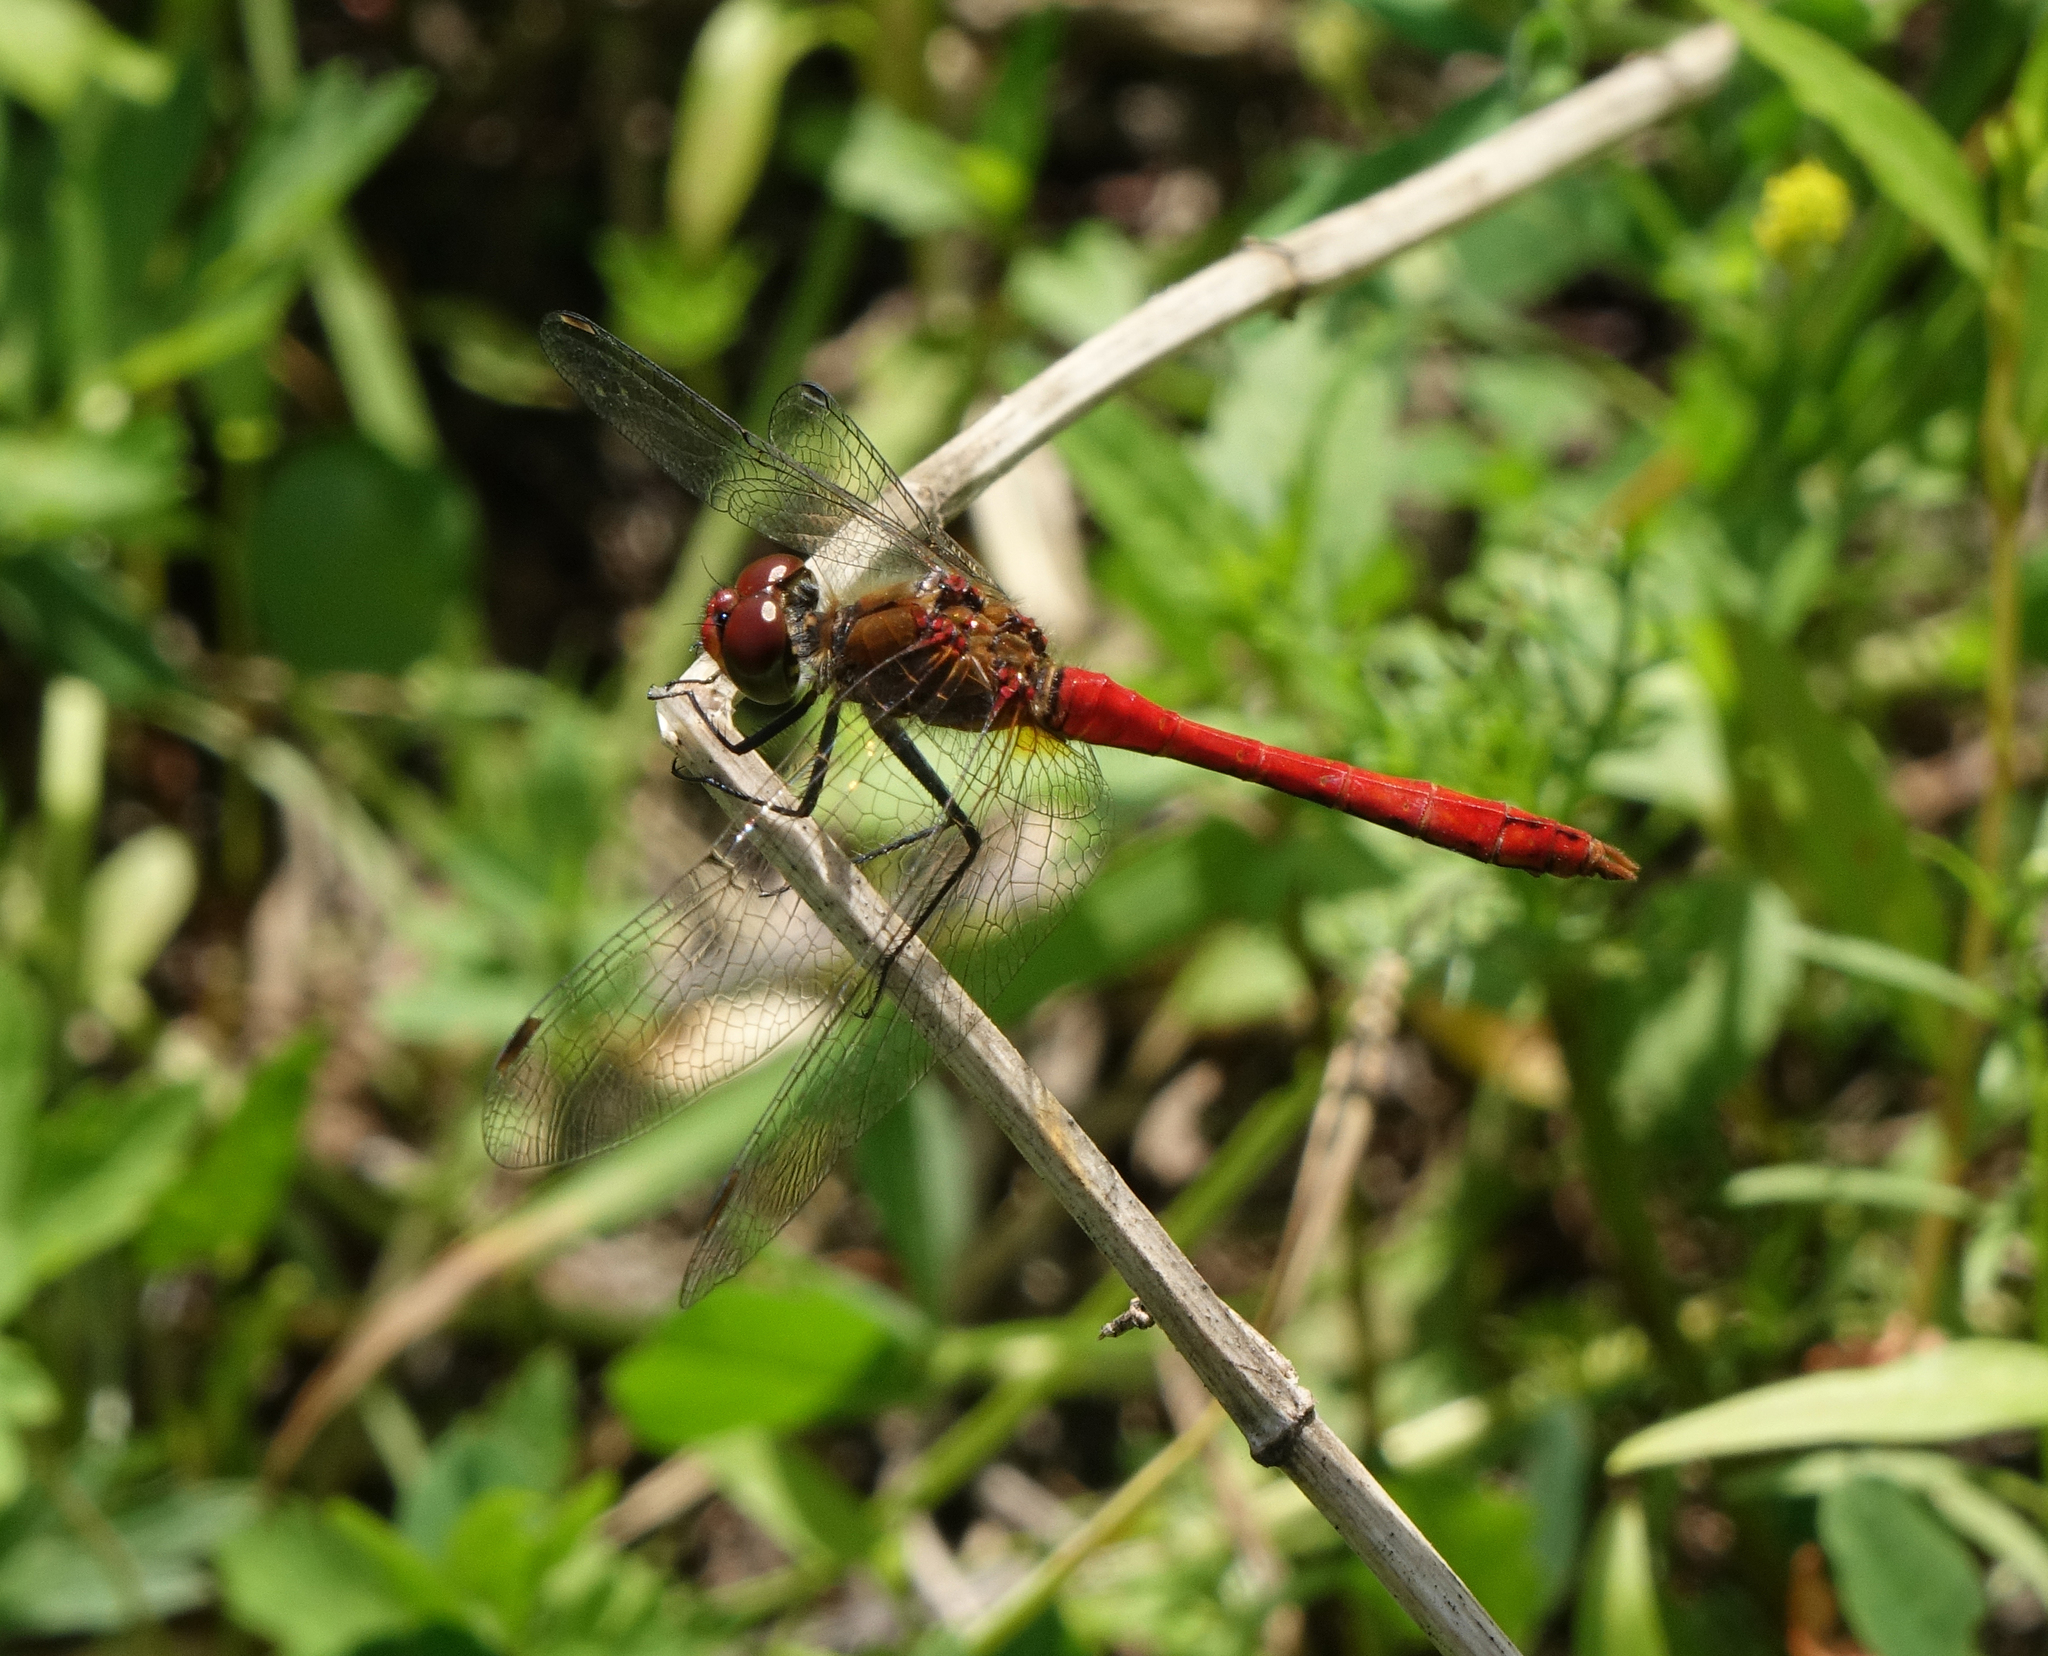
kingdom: Animalia
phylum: Arthropoda
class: Insecta
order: Odonata
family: Libellulidae
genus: Sympetrum
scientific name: Sympetrum sanguineum
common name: Ruddy darter
